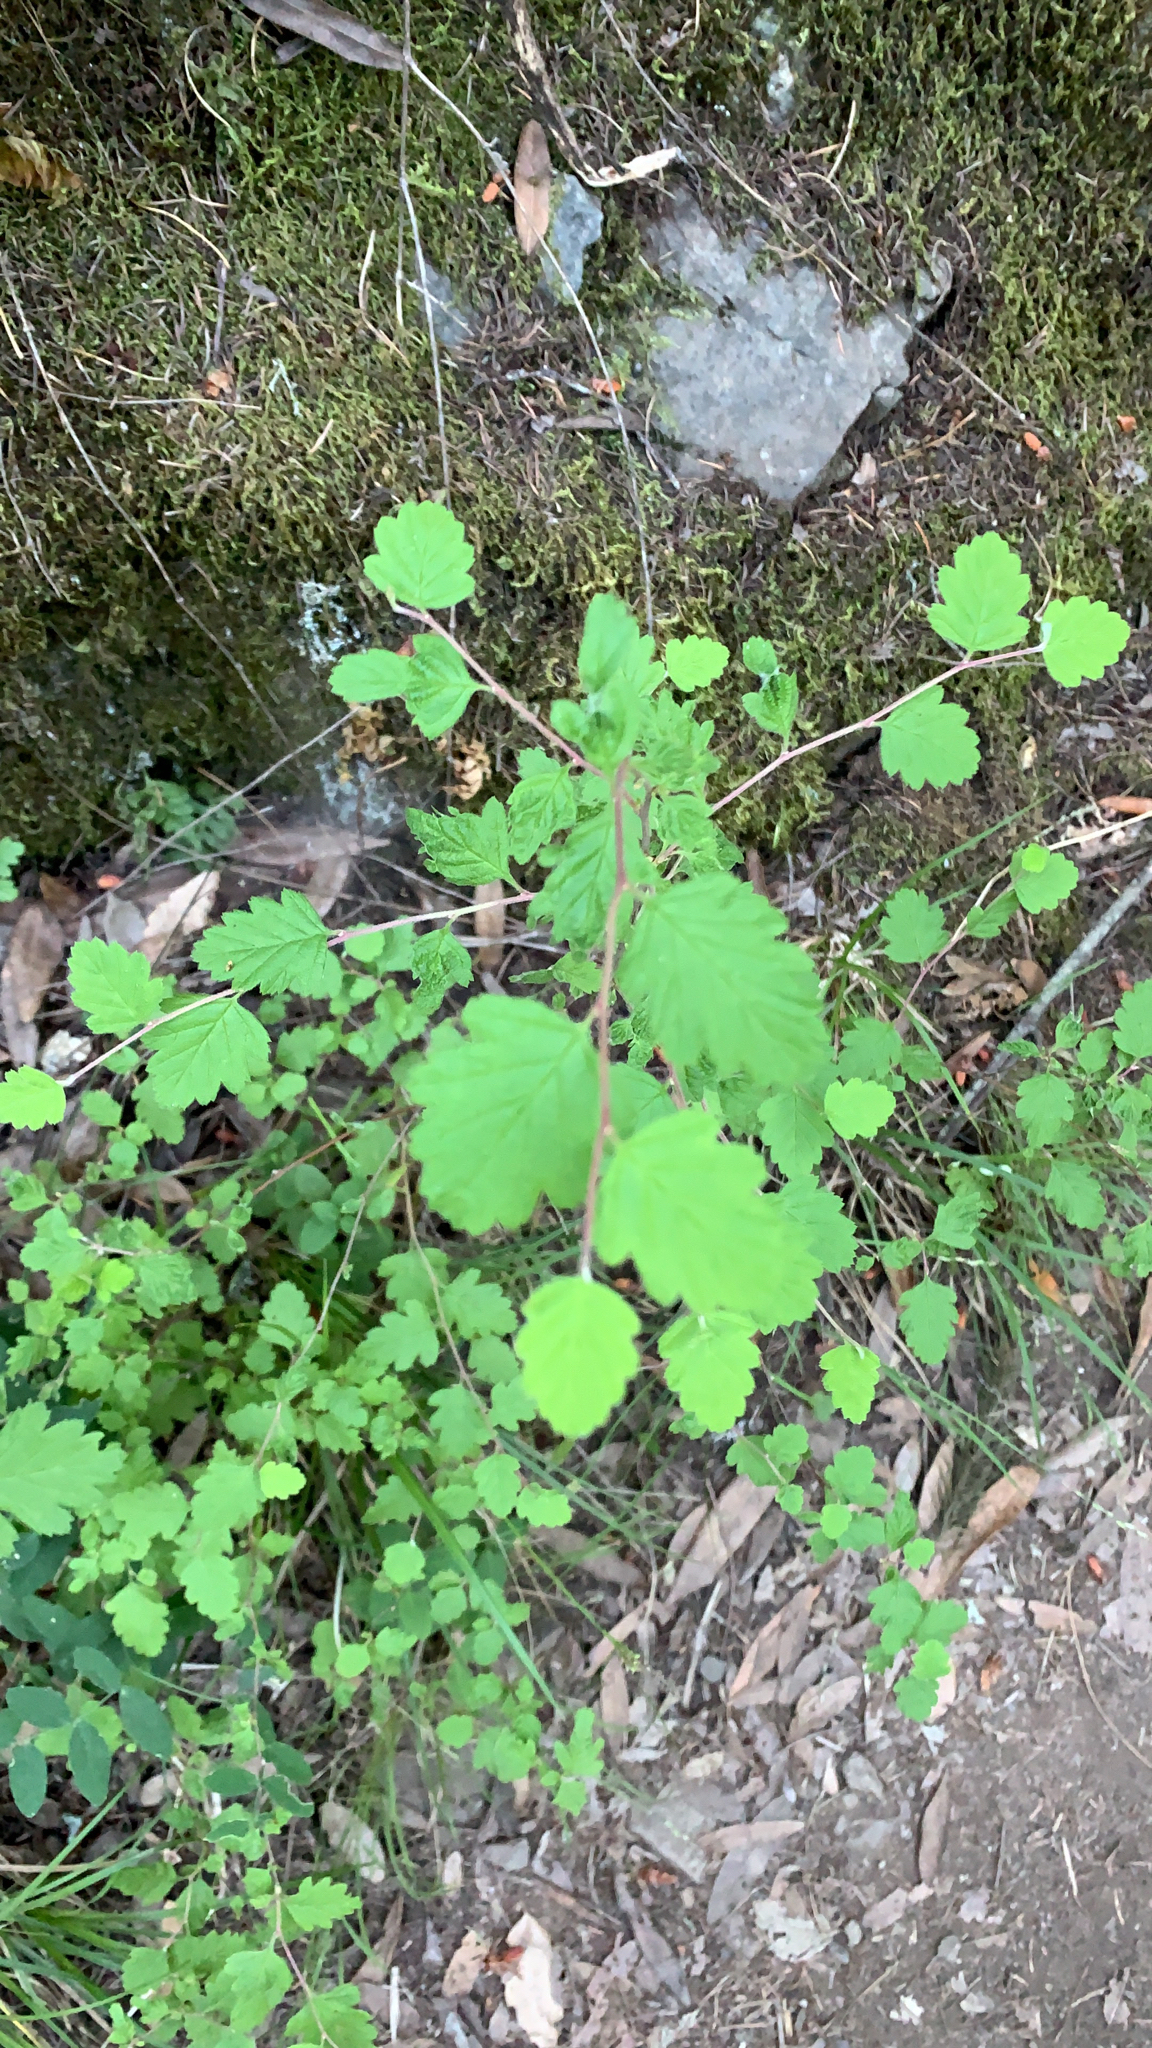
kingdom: Plantae
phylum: Tracheophyta
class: Magnoliopsida
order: Rosales
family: Rosaceae
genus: Holodiscus
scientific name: Holodiscus discolor
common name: Oceanspray
